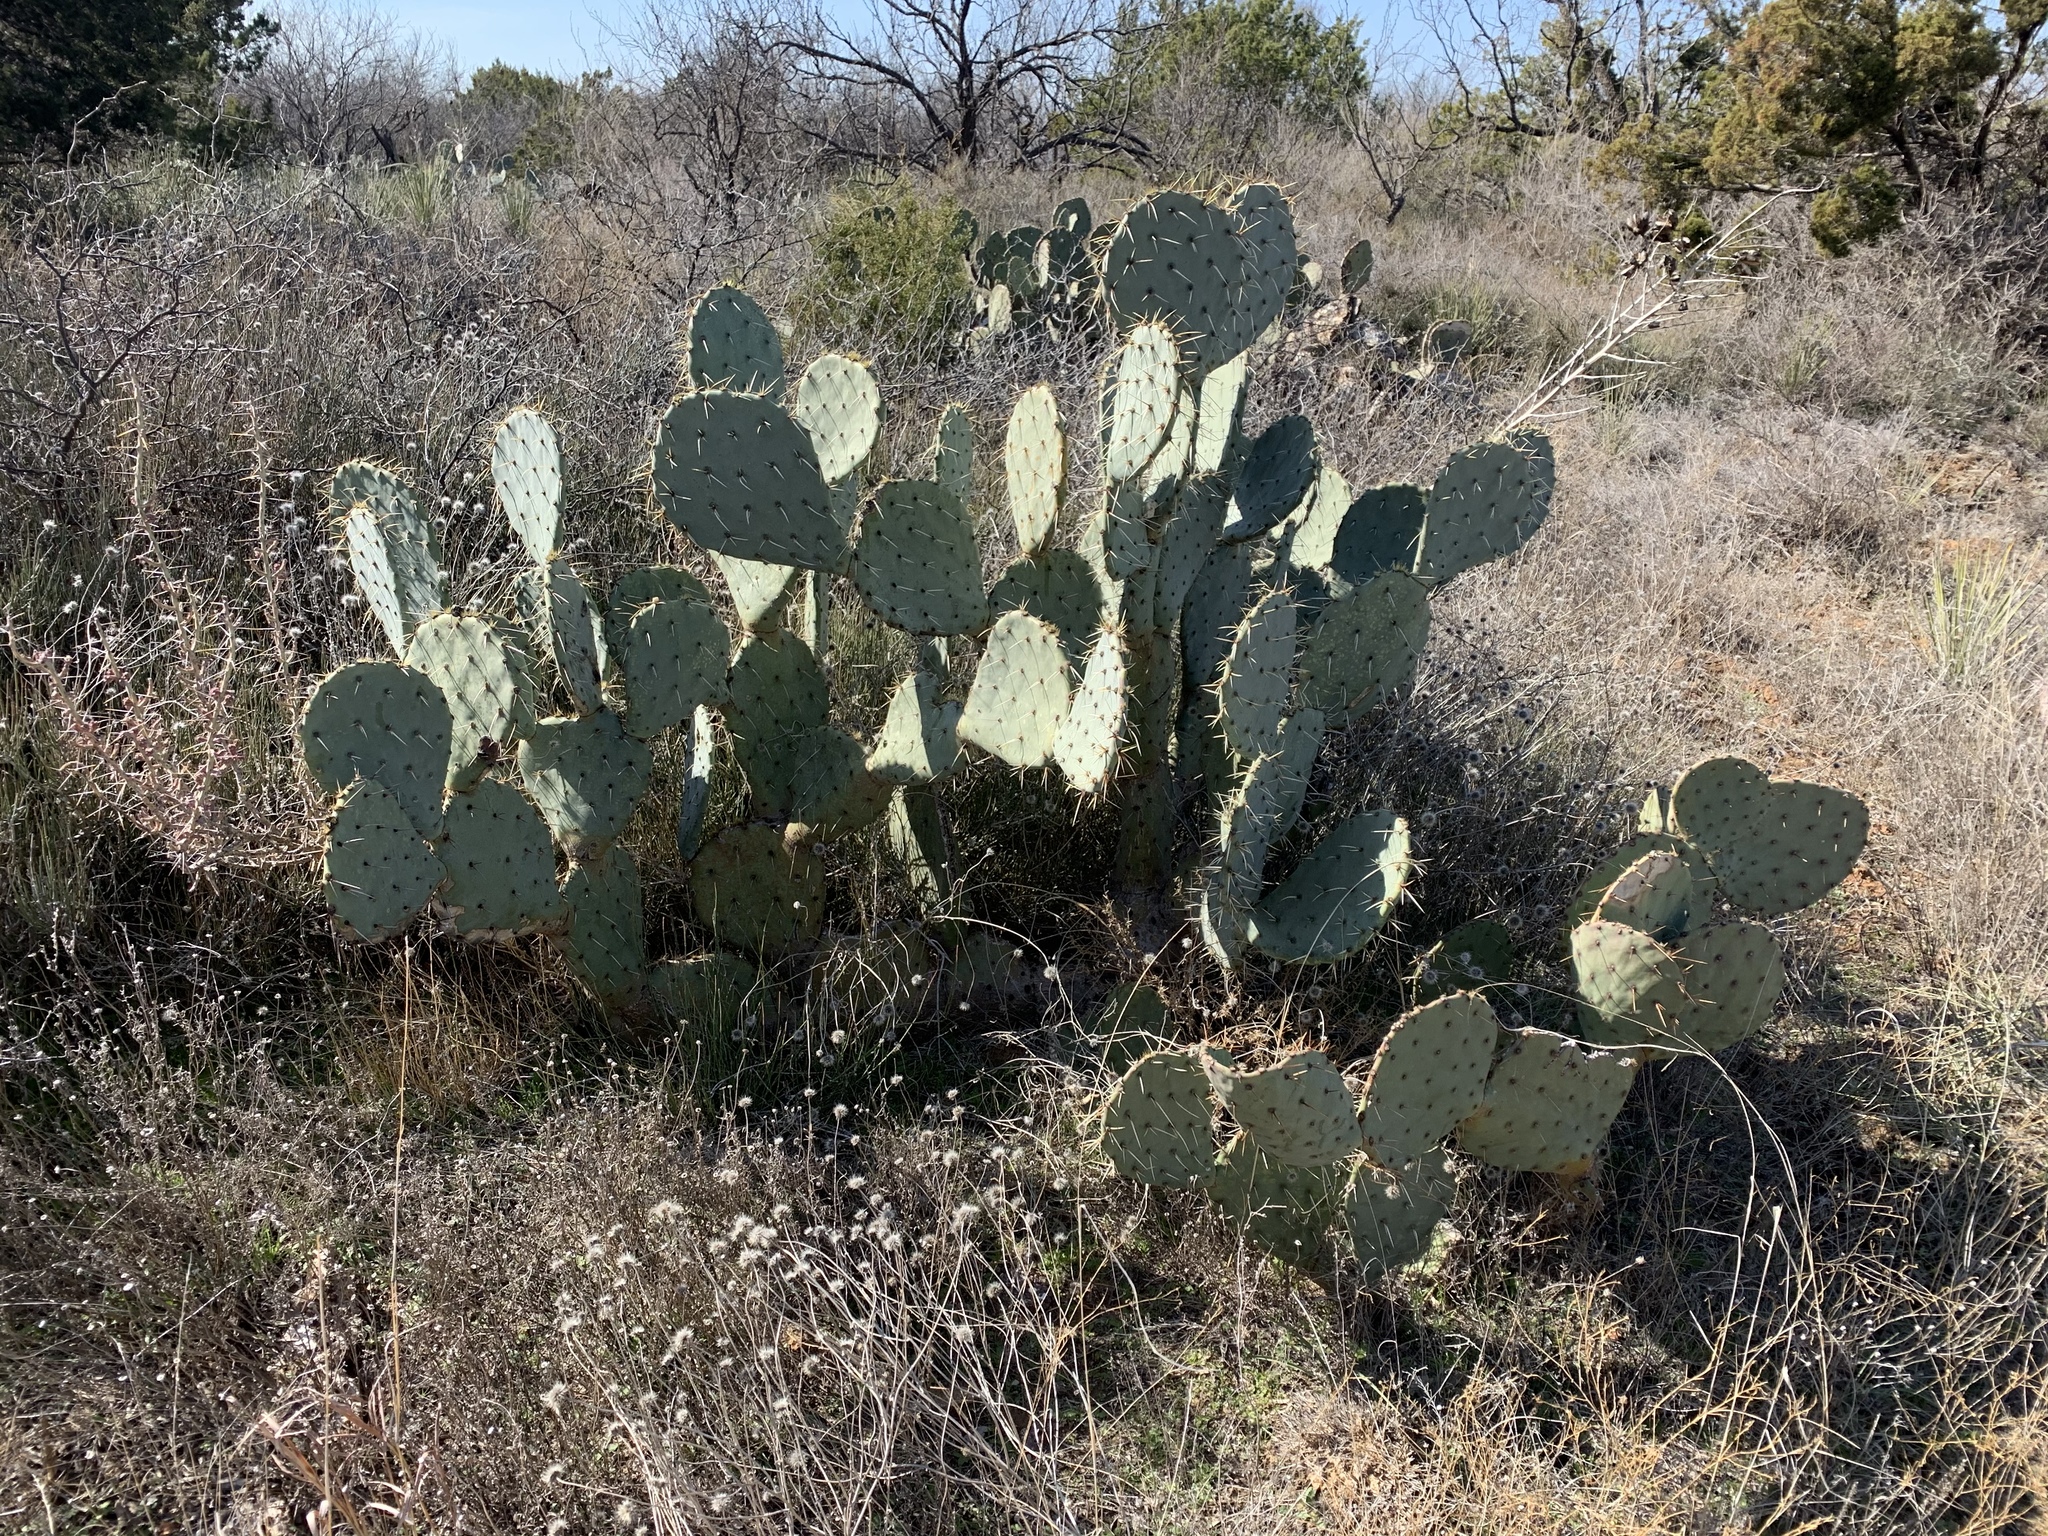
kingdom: Plantae
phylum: Tracheophyta
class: Magnoliopsida
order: Caryophyllales
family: Cactaceae
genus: Opuntia
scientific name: Opuntia engelmannii
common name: Cactus-apple
